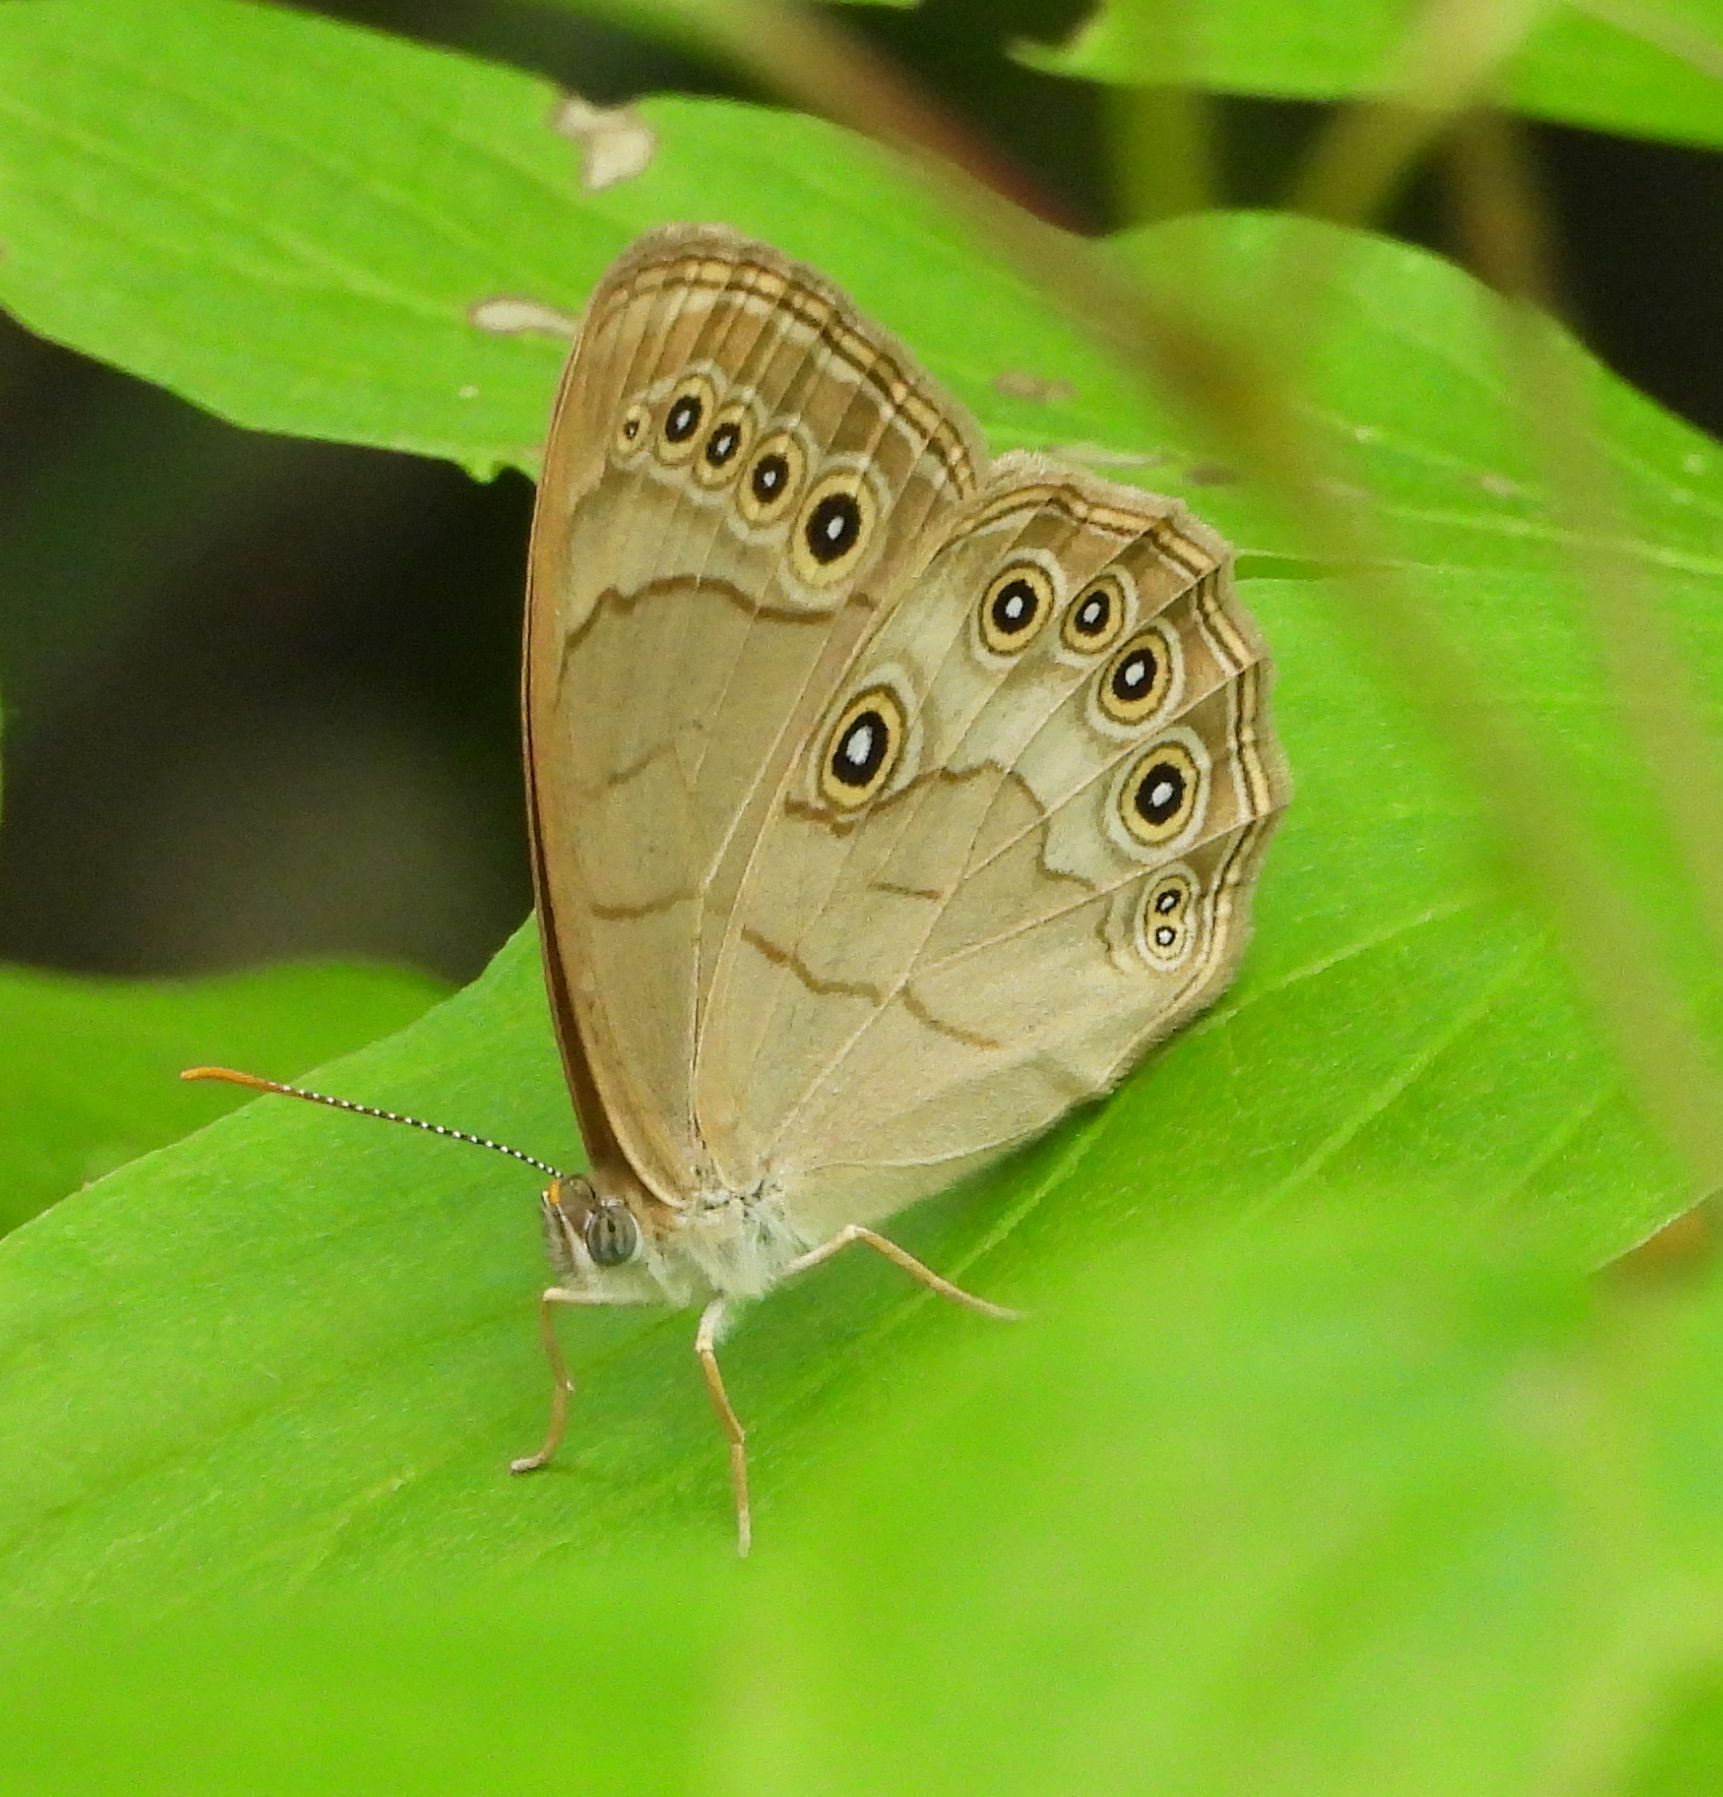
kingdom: Animalia
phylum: Arthropoda
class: Insecta
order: Lepidoptera
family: Nymphalidae
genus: Lethe
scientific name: Lethe eurydice
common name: Eyed brown
